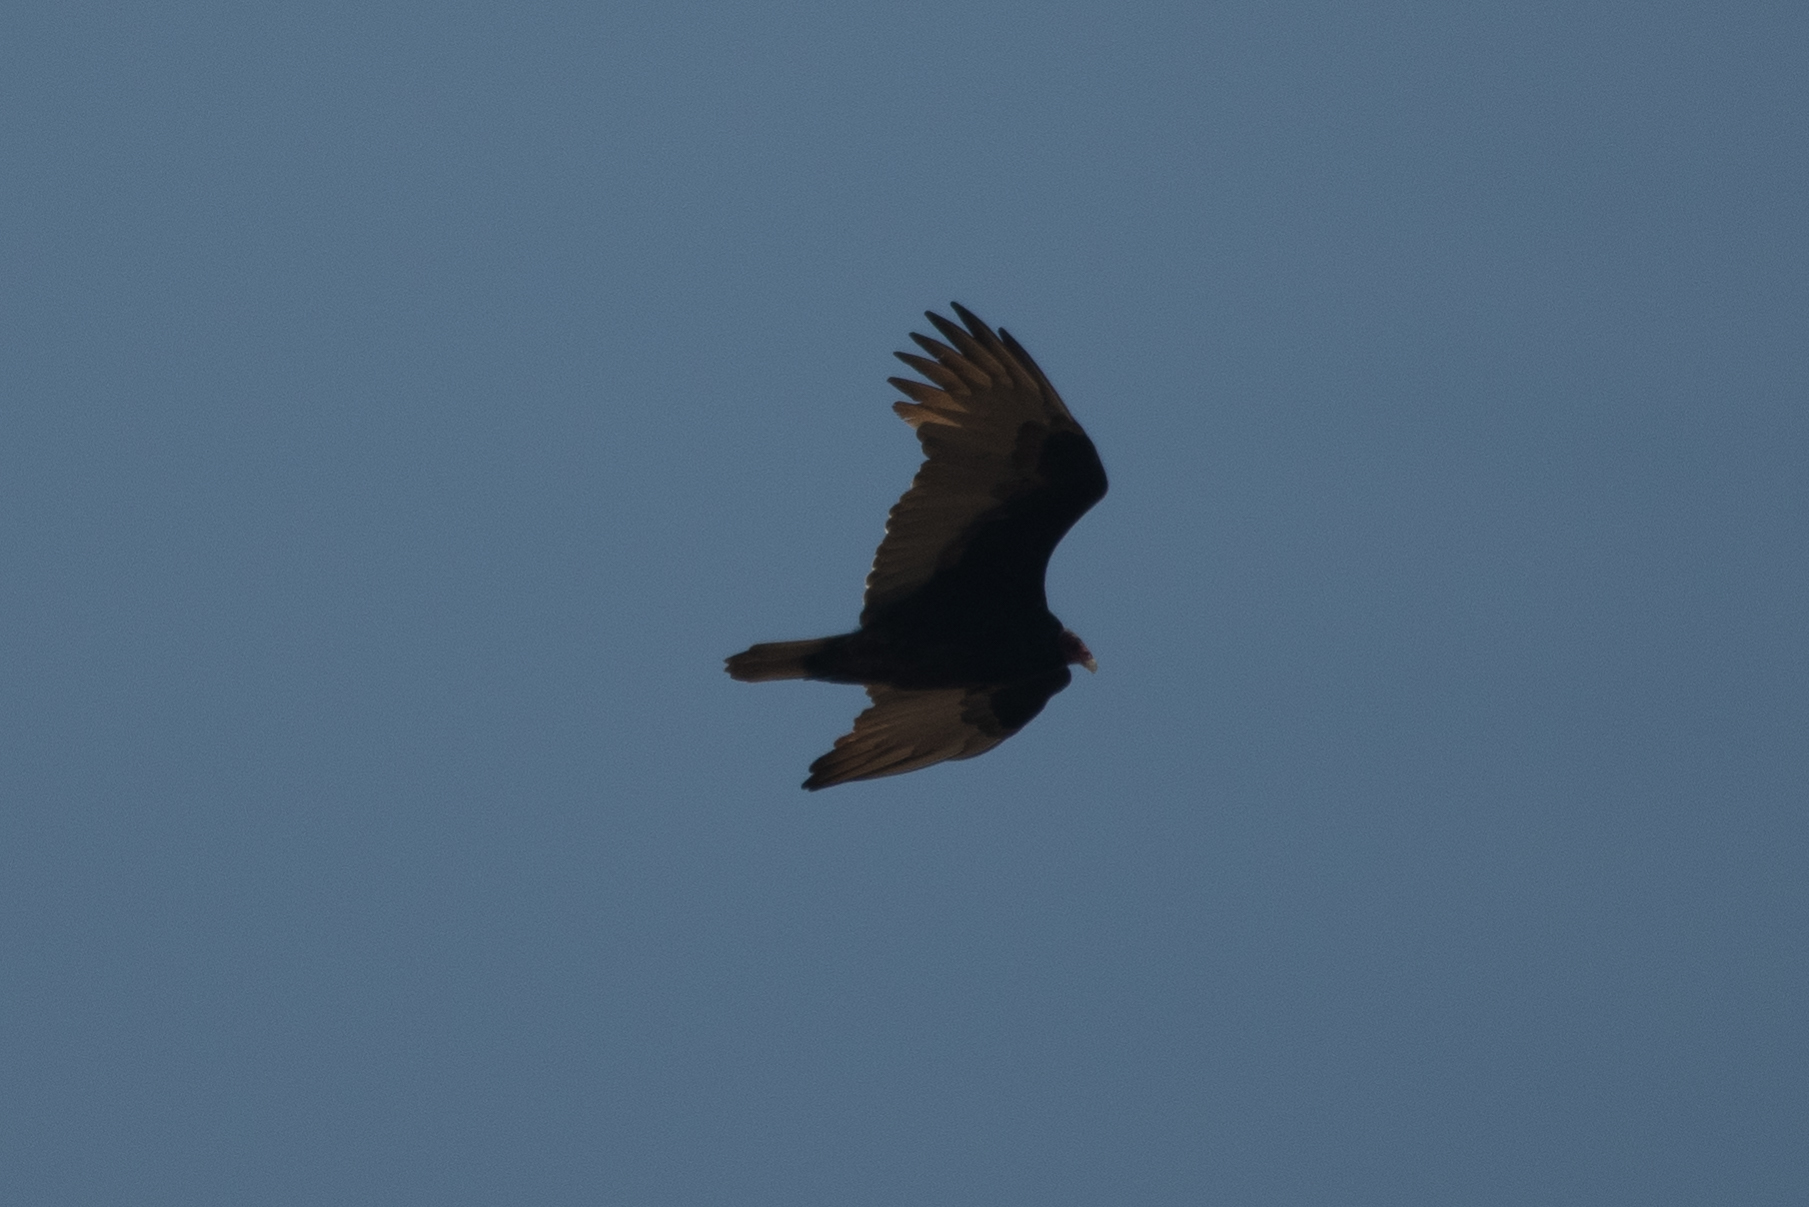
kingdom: Animalia
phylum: Chordata
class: Aves
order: Accipitriformes
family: Cathartidae
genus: Cathartes
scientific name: Cathartes aura
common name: Turkey vulture
